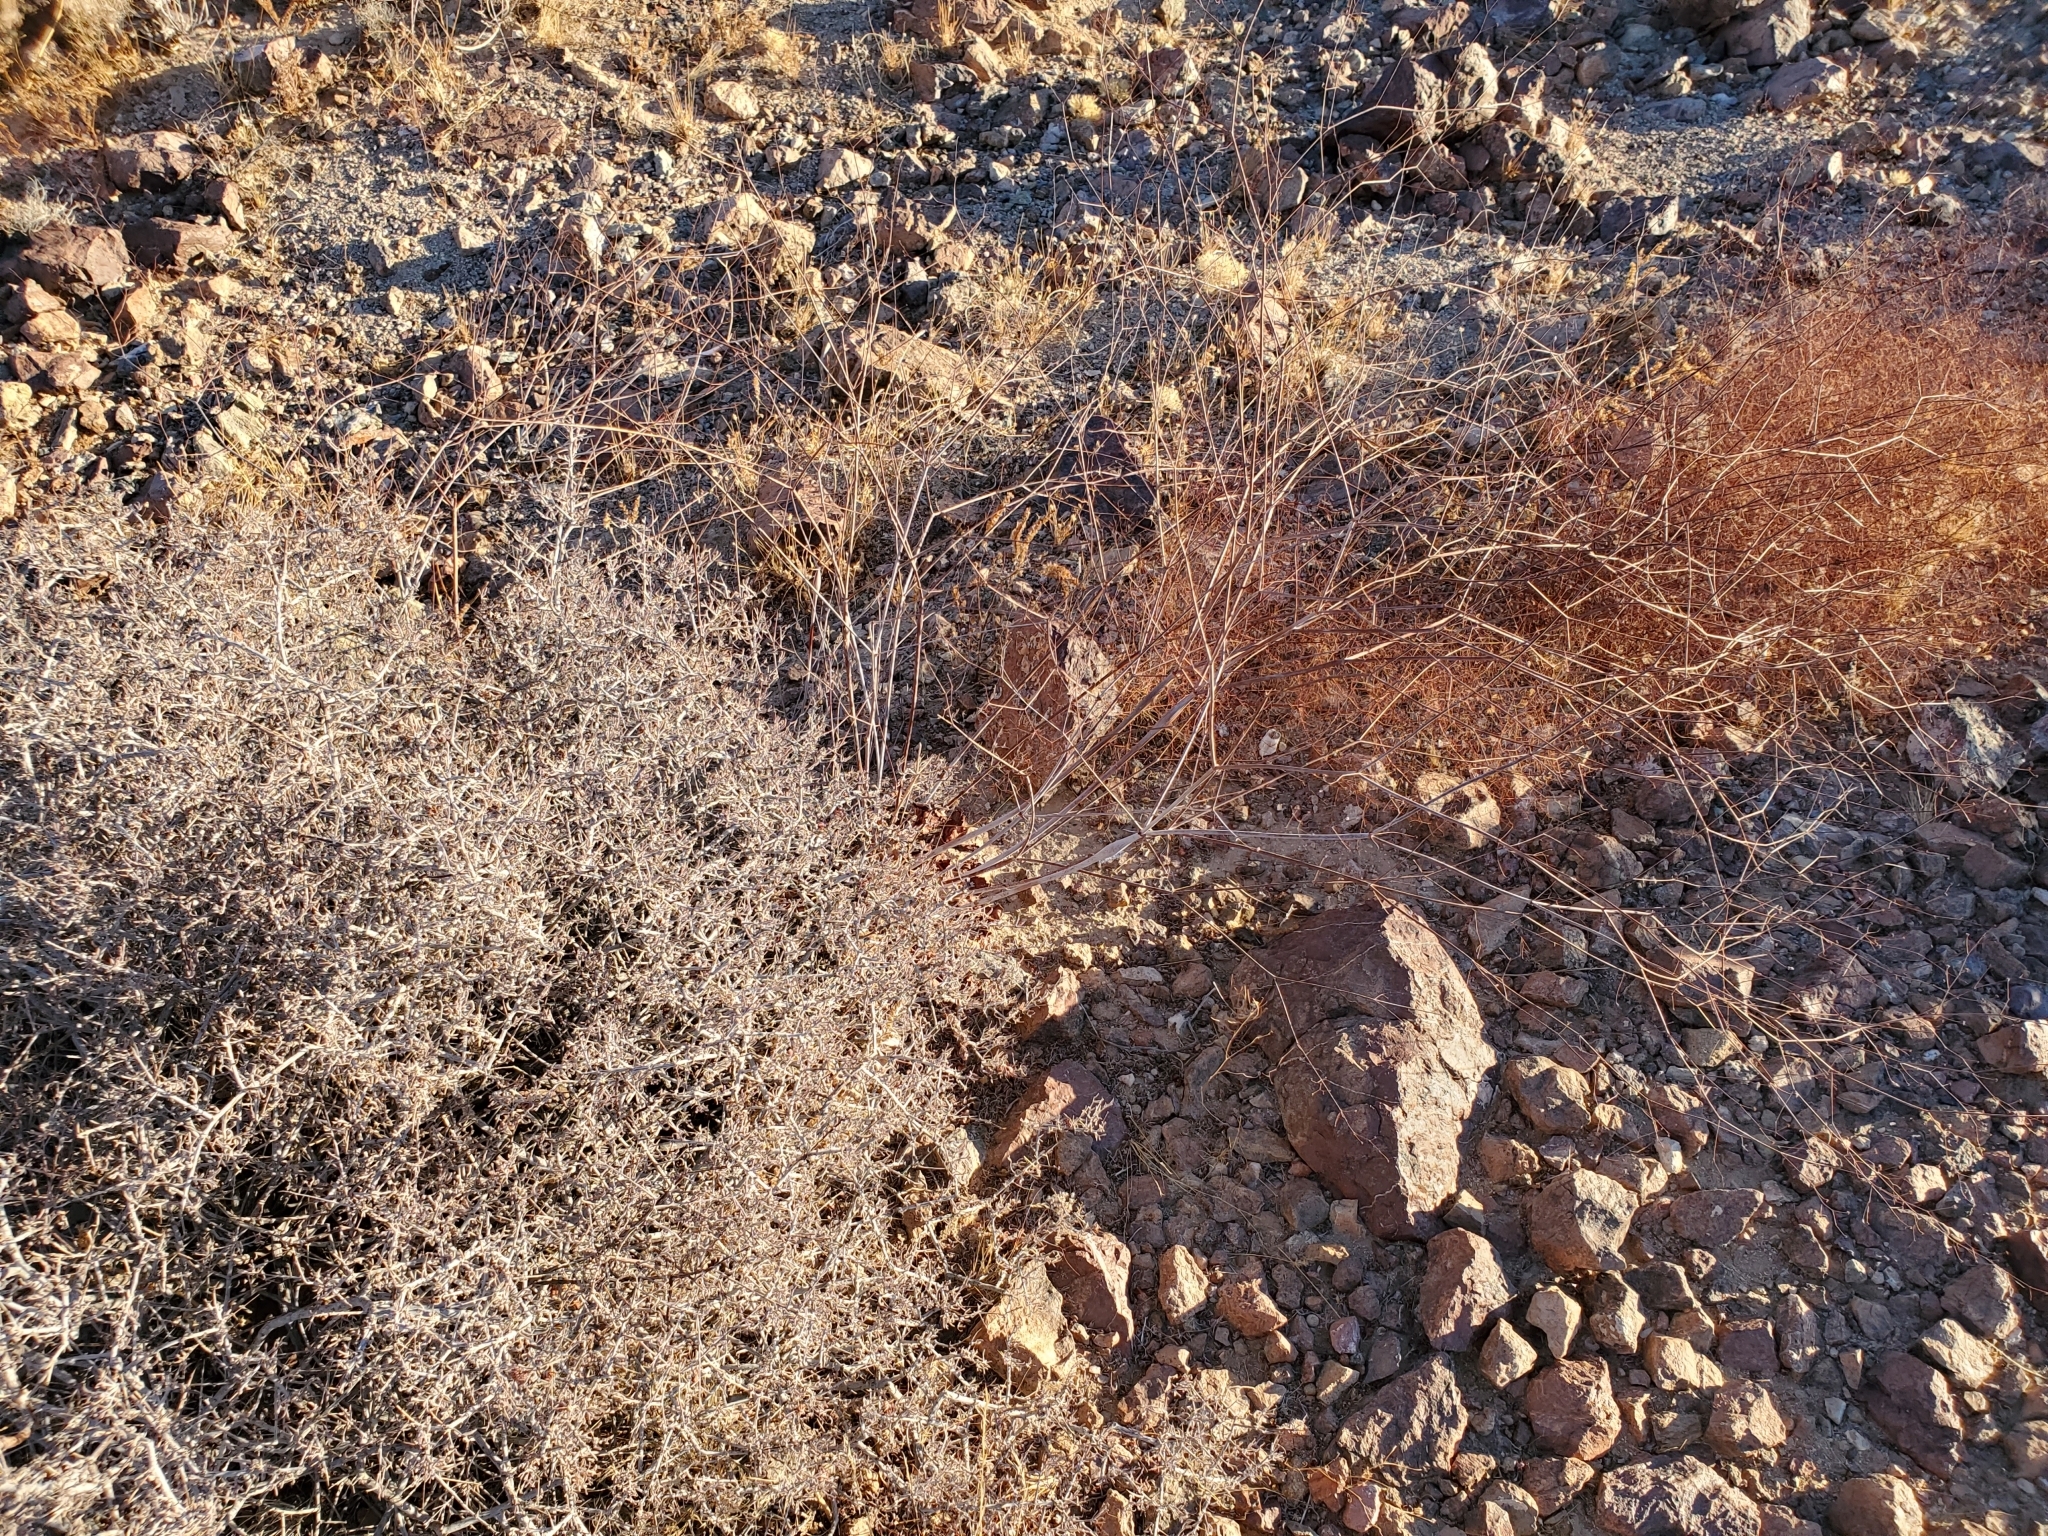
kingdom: Plantae
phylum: Tracheophyta
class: Magnoliopsida
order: Caryophyllales
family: Polygonaceae
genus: Eriogonum
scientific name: Eriogonum thomasii
